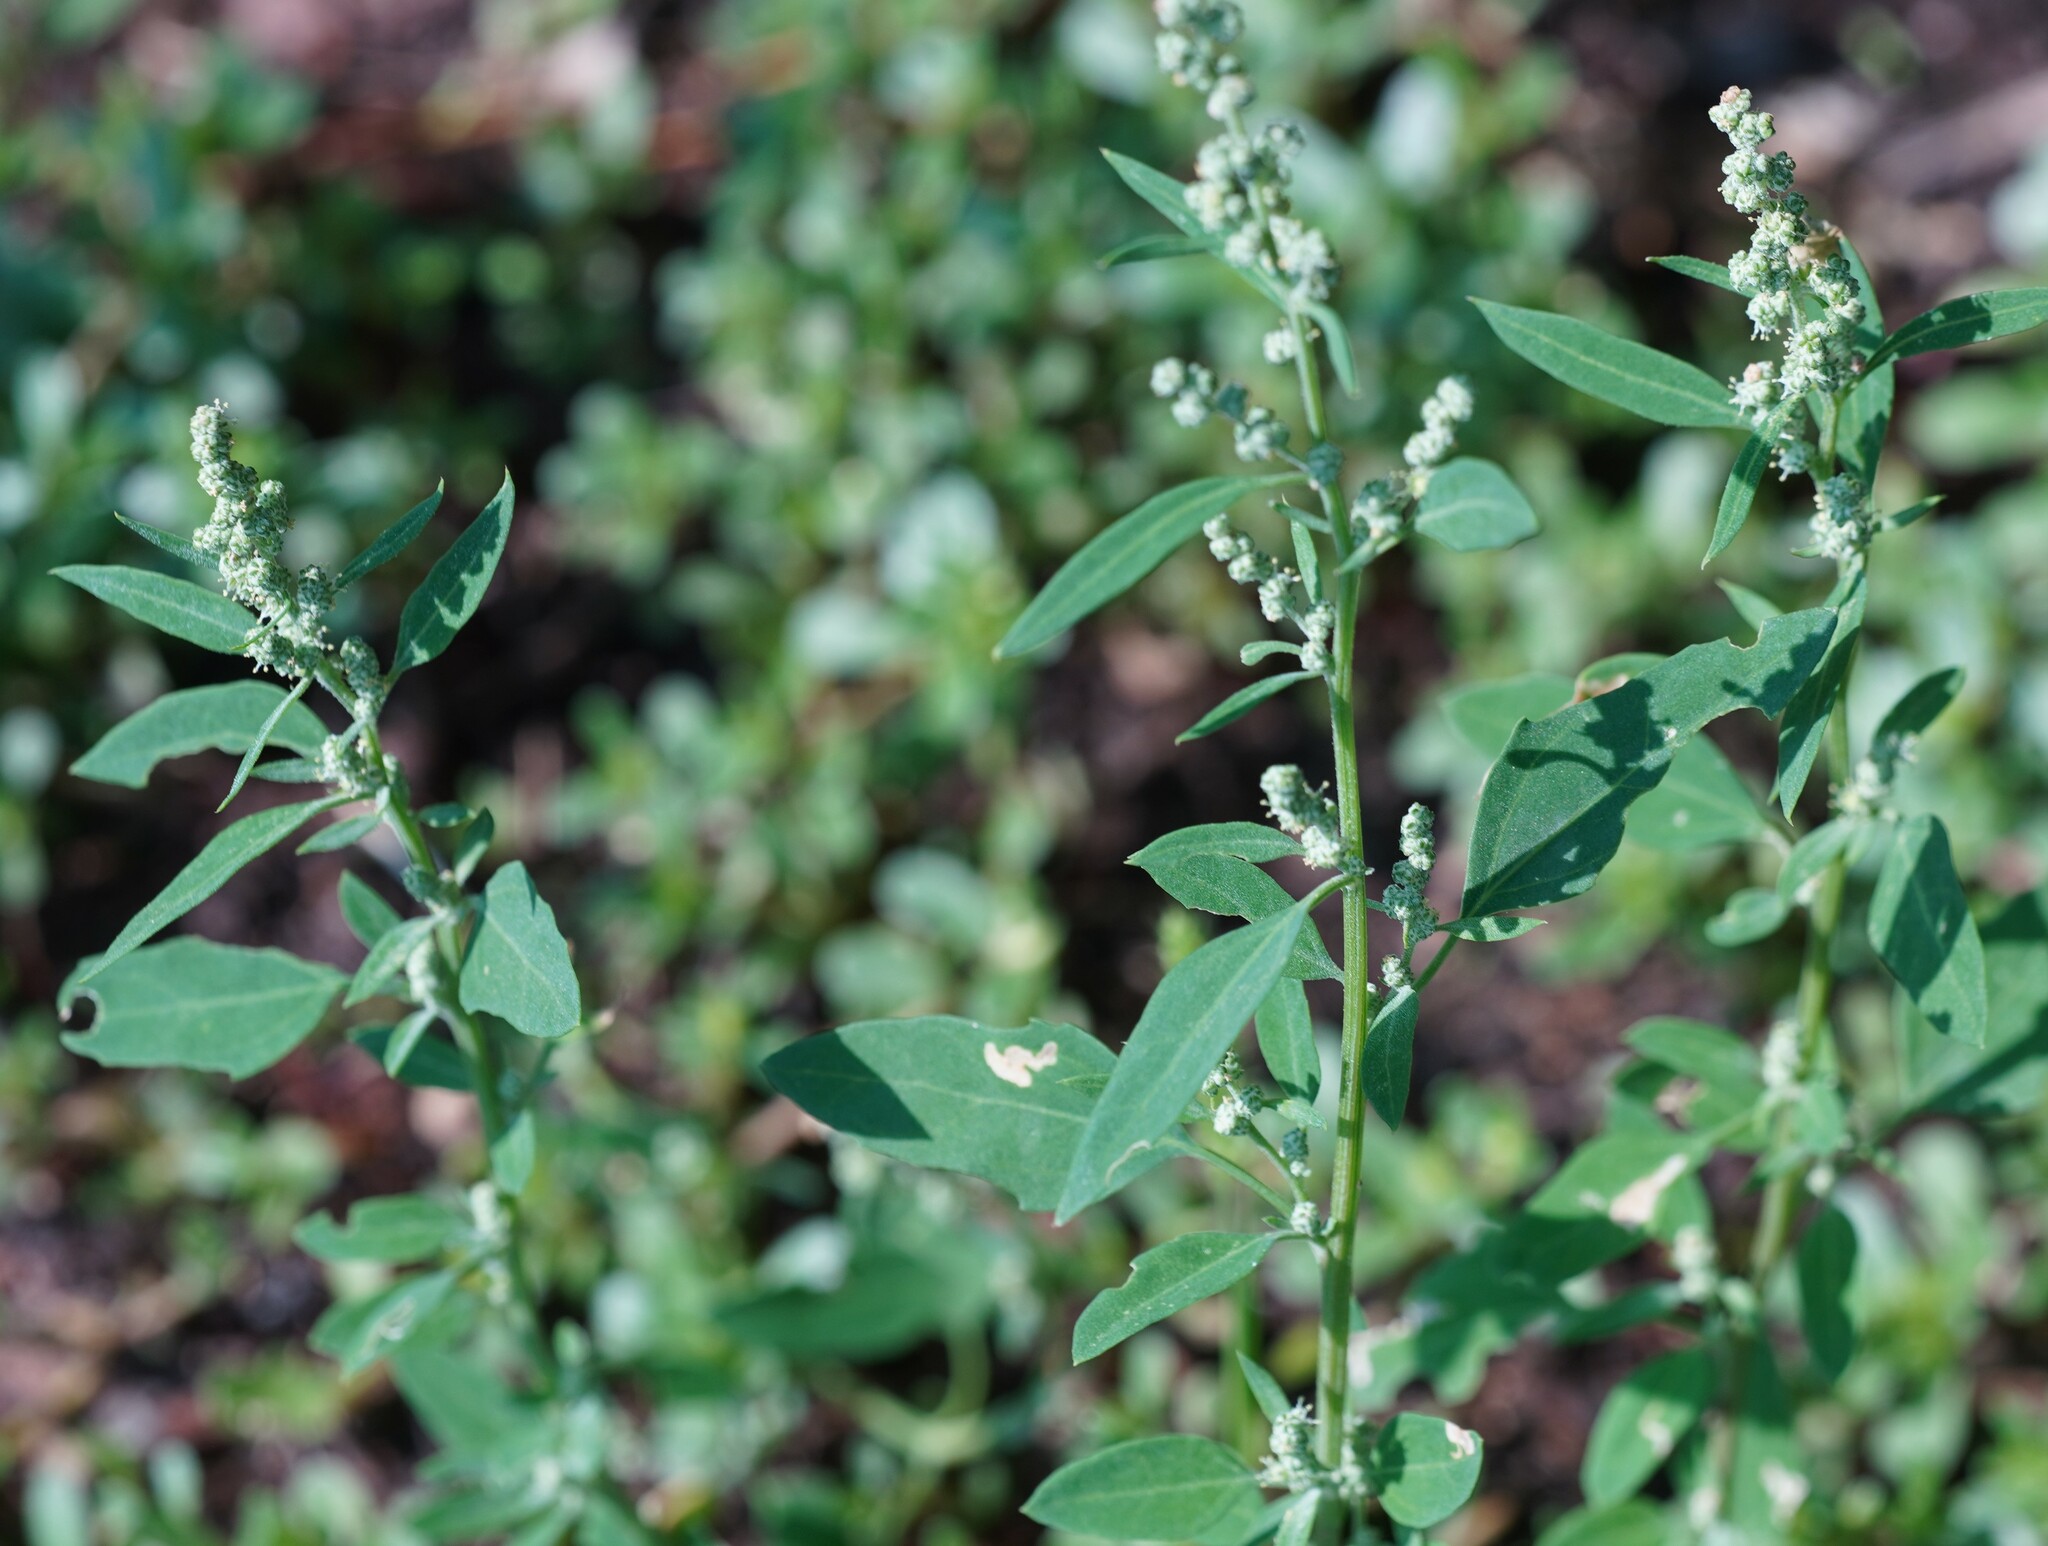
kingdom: Plantae
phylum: Tracheophyta
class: Magnoliopsida
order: Caryophyllales
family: Amaranthaceae
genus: Chenopodium
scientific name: Chenopodium album
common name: Fat-hen
